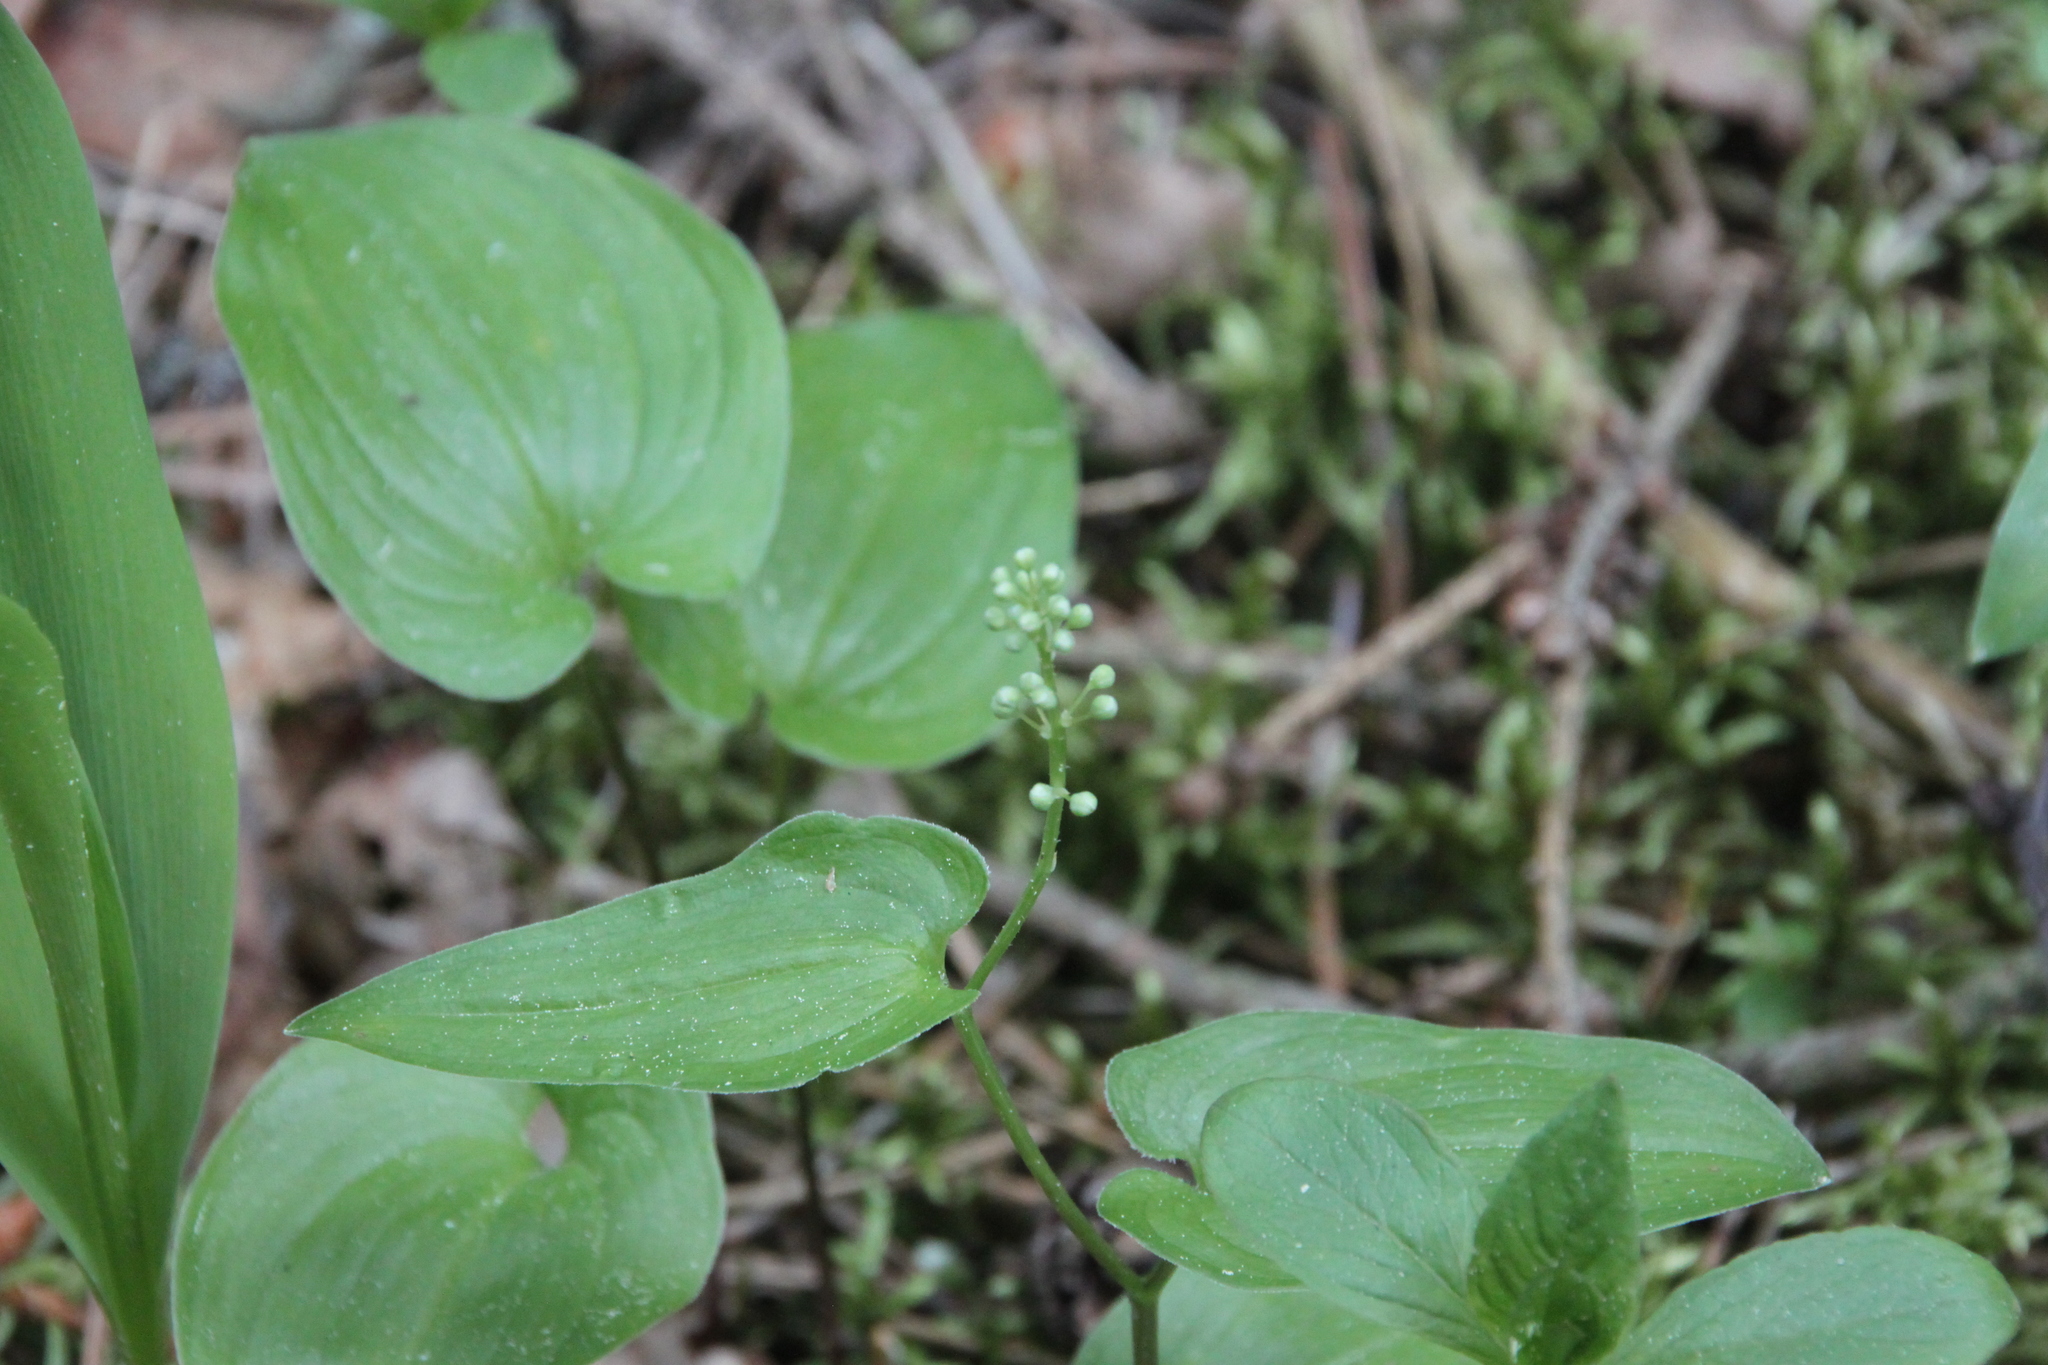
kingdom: Plantae
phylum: Tracheophyta
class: Liliopsida
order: Asparagales
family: Asparagaceae
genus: Maianthemum
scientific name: Maianthemum bifolium
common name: May lily
